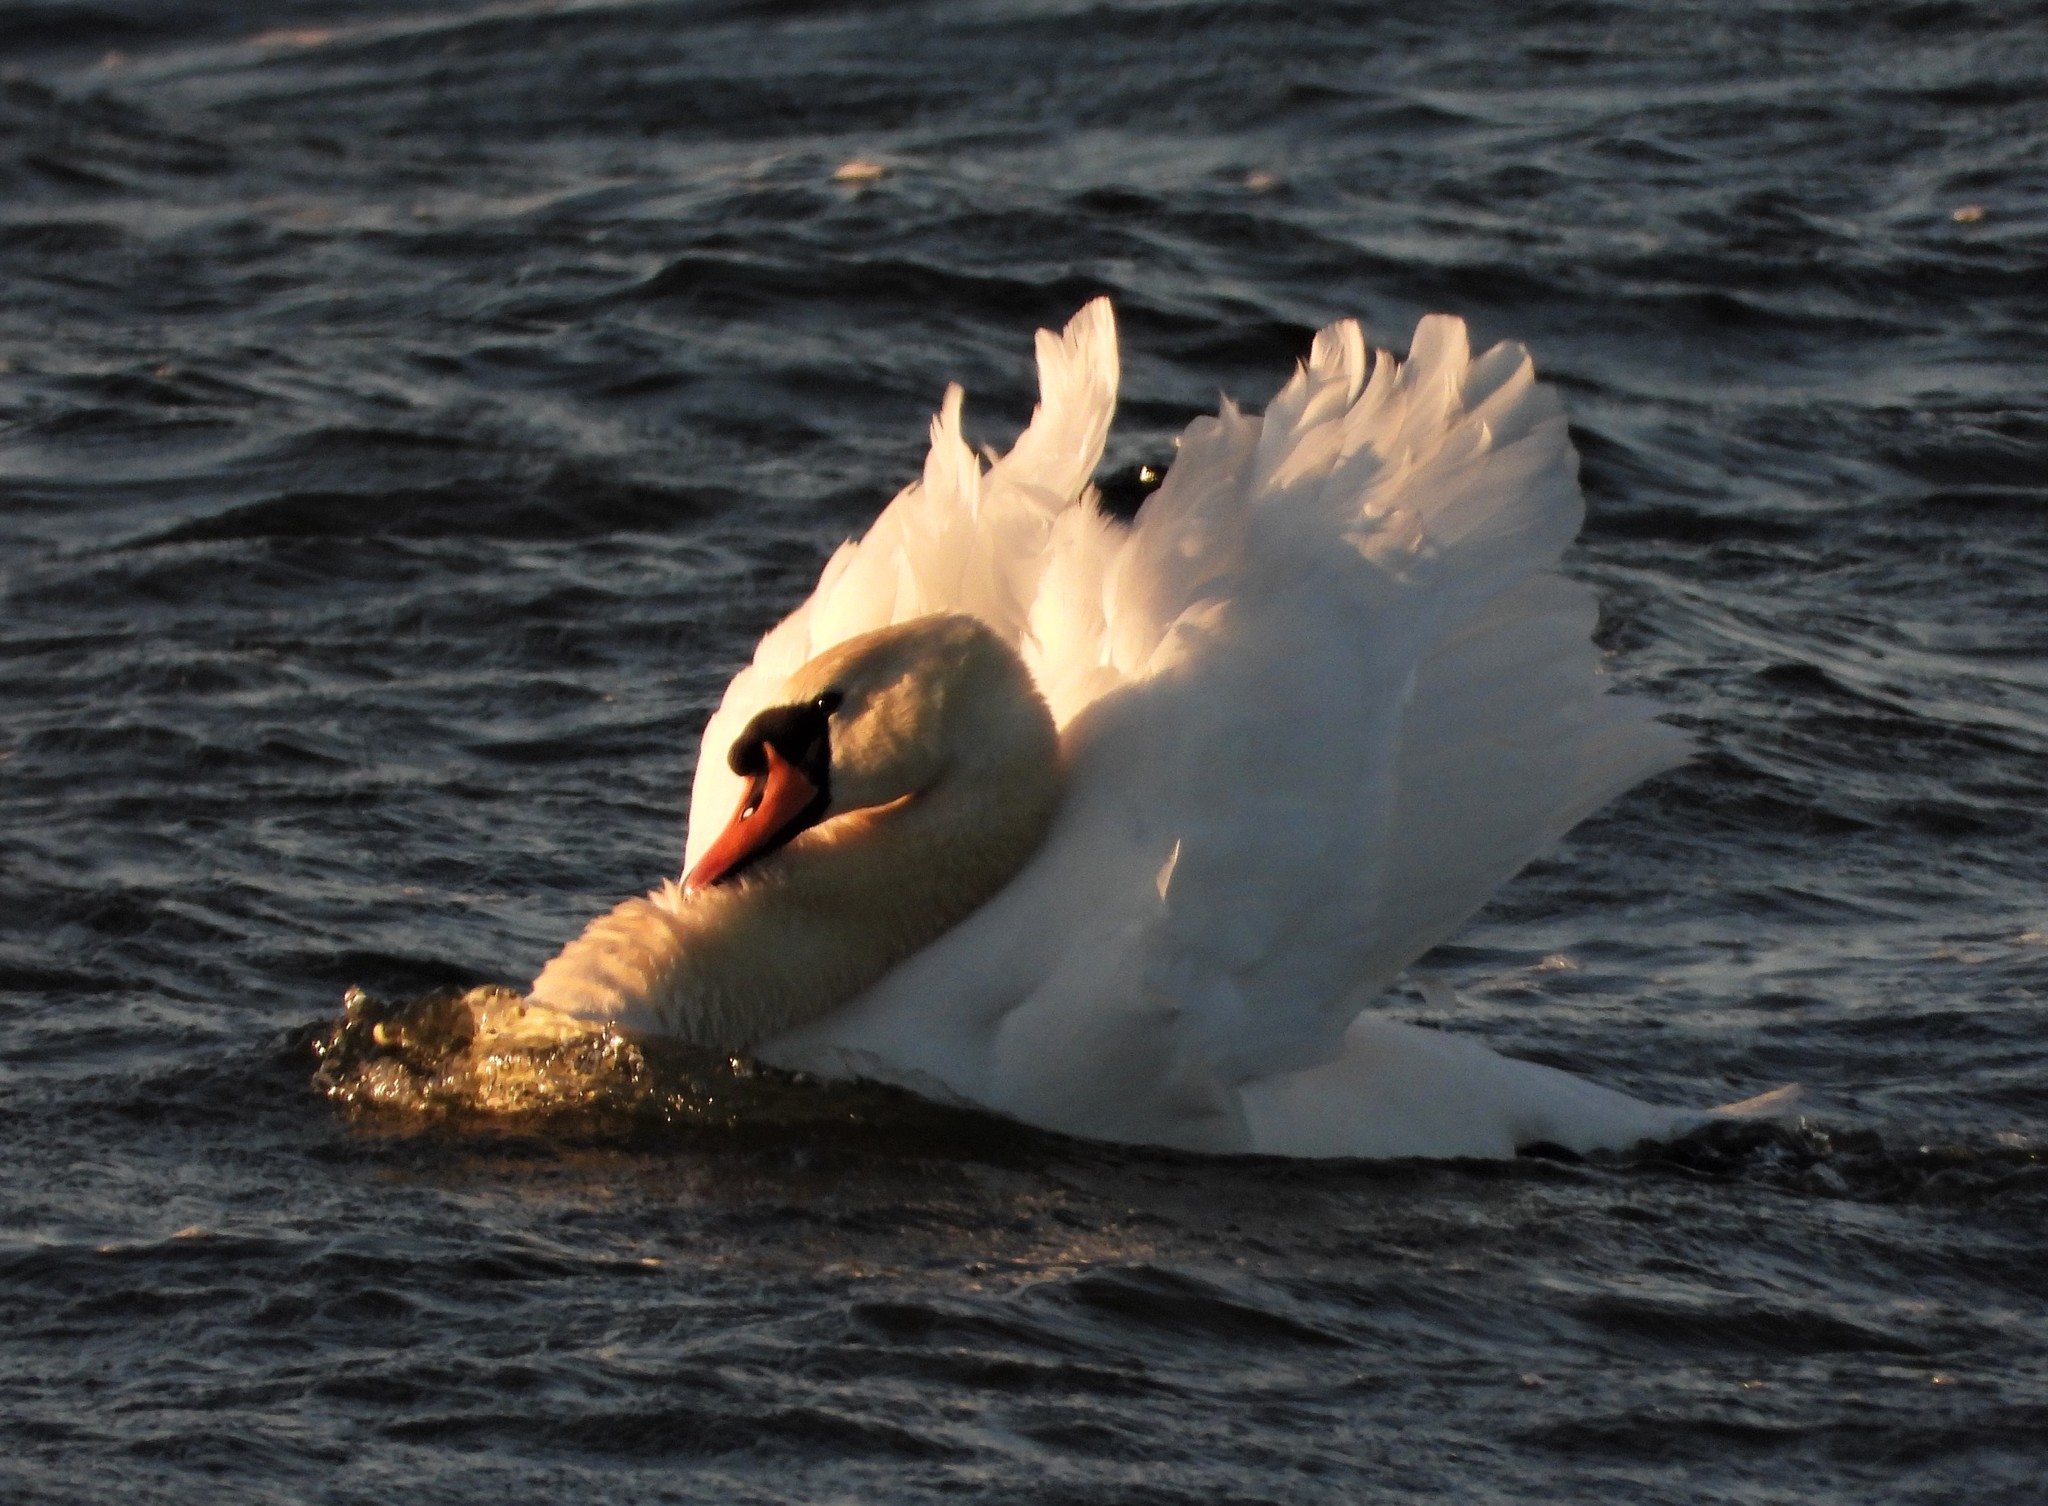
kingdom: Animalia
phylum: Chordata
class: Aves
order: Anseriformes
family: Anatidae
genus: Cygnus
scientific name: Cygnus olor
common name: Mute swan
